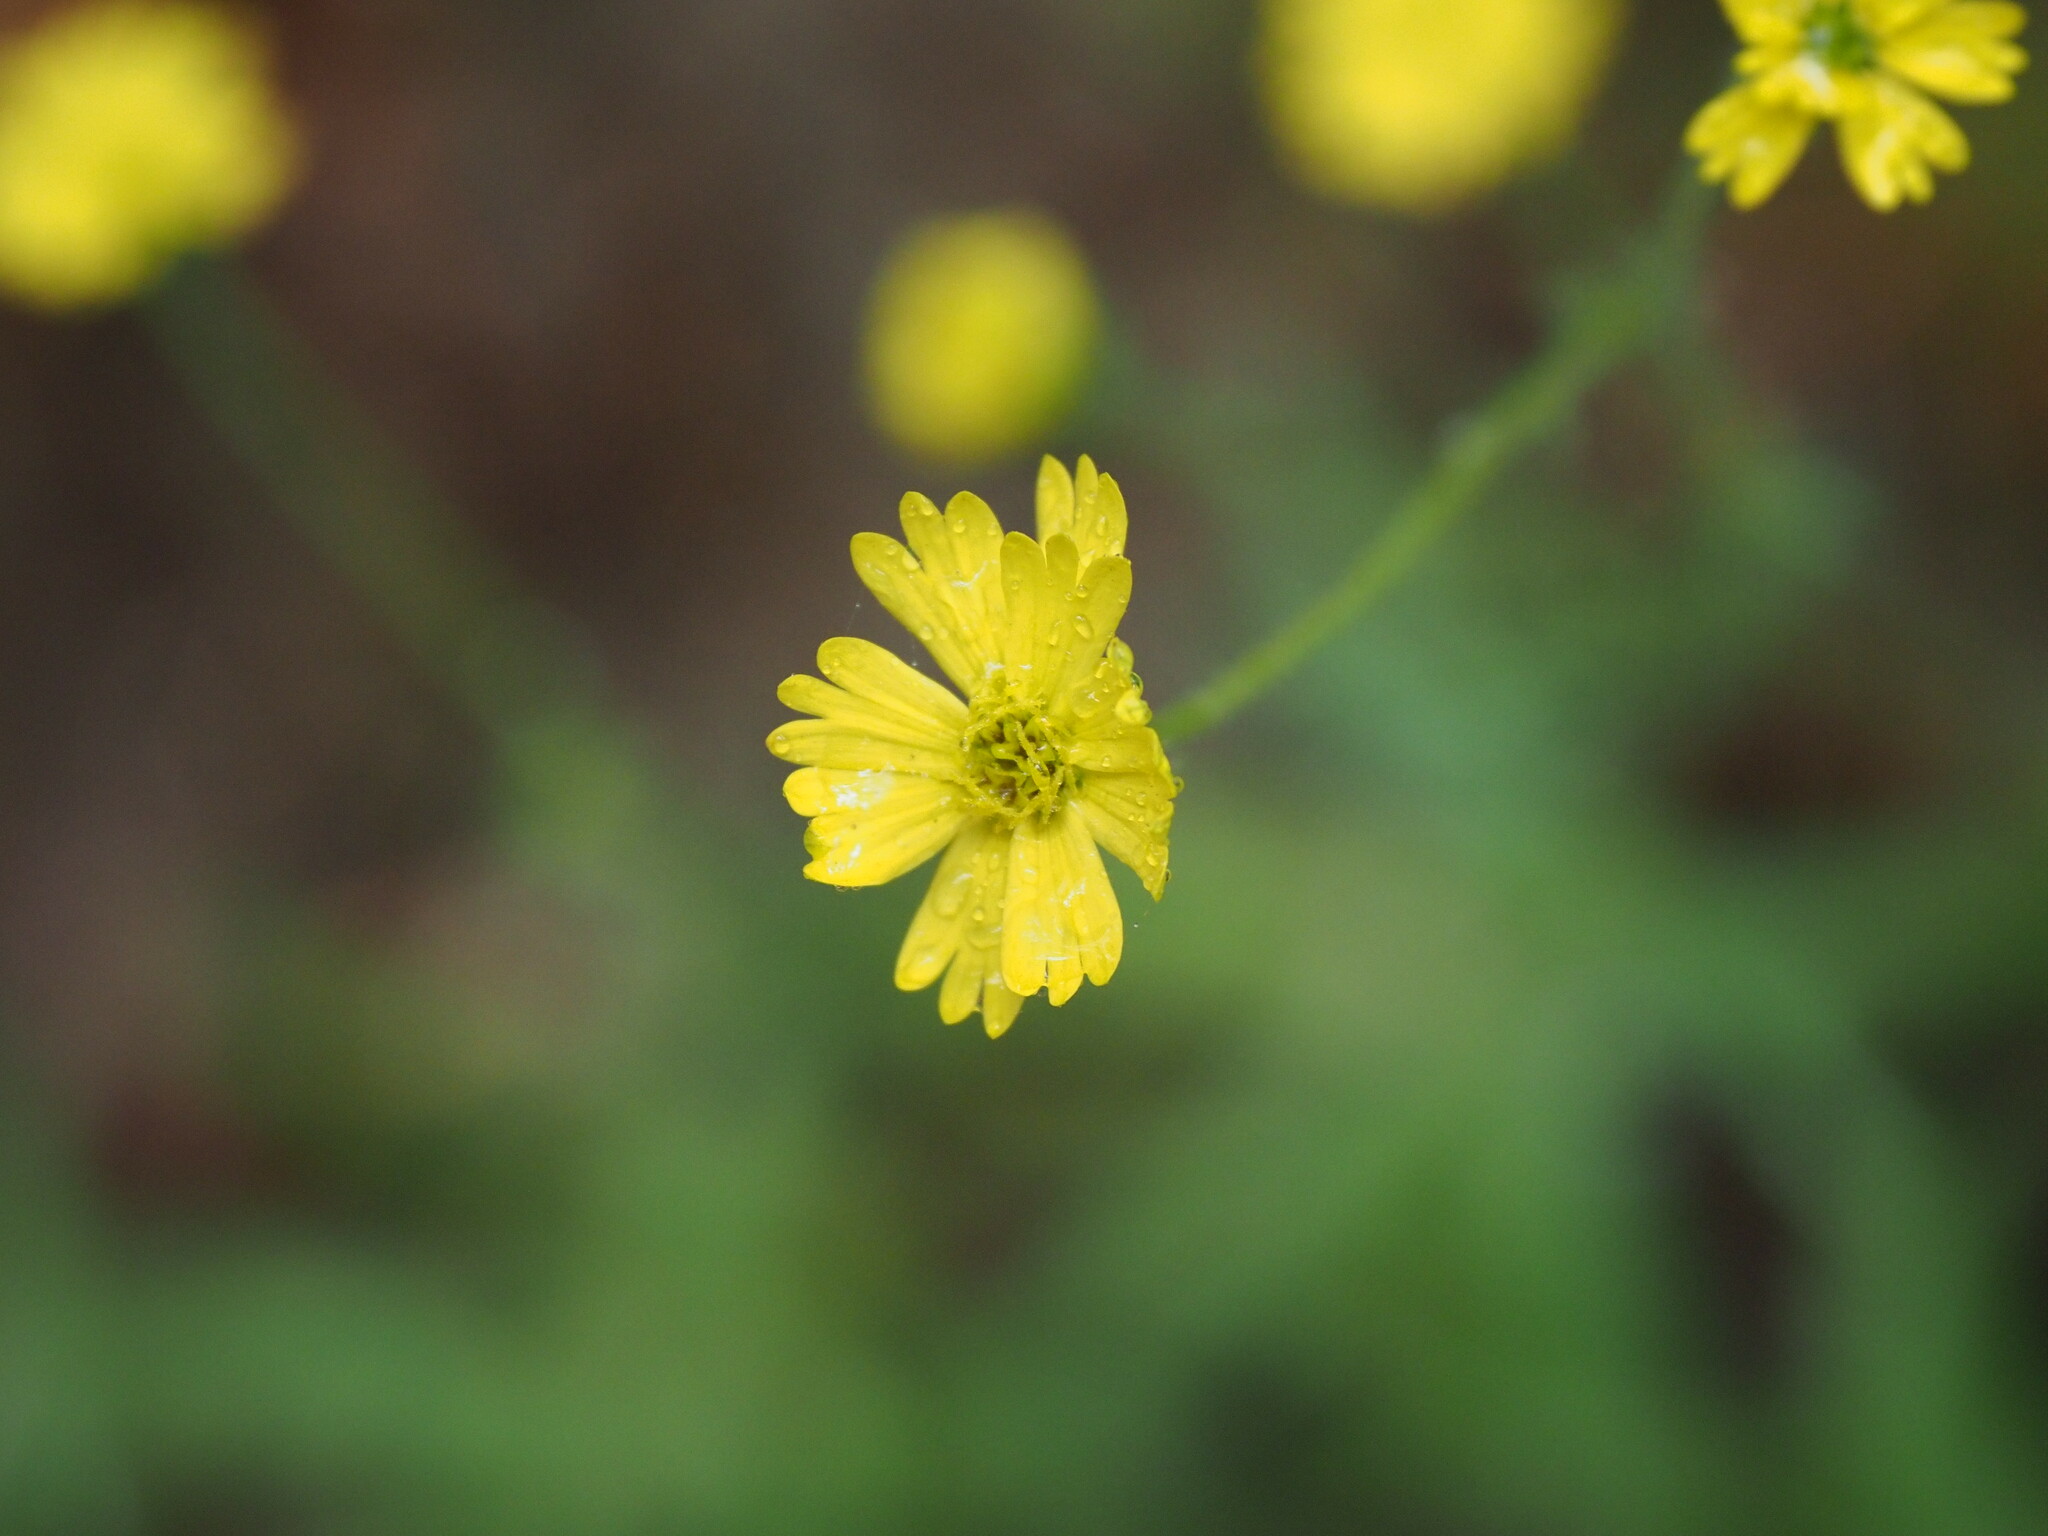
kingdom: Plantae
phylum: Tracheophyta
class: Magnoliopsida
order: Asterales
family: Asteraceae
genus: Anisocarpus
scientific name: Anisocarpus madioides
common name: Woodland madia
